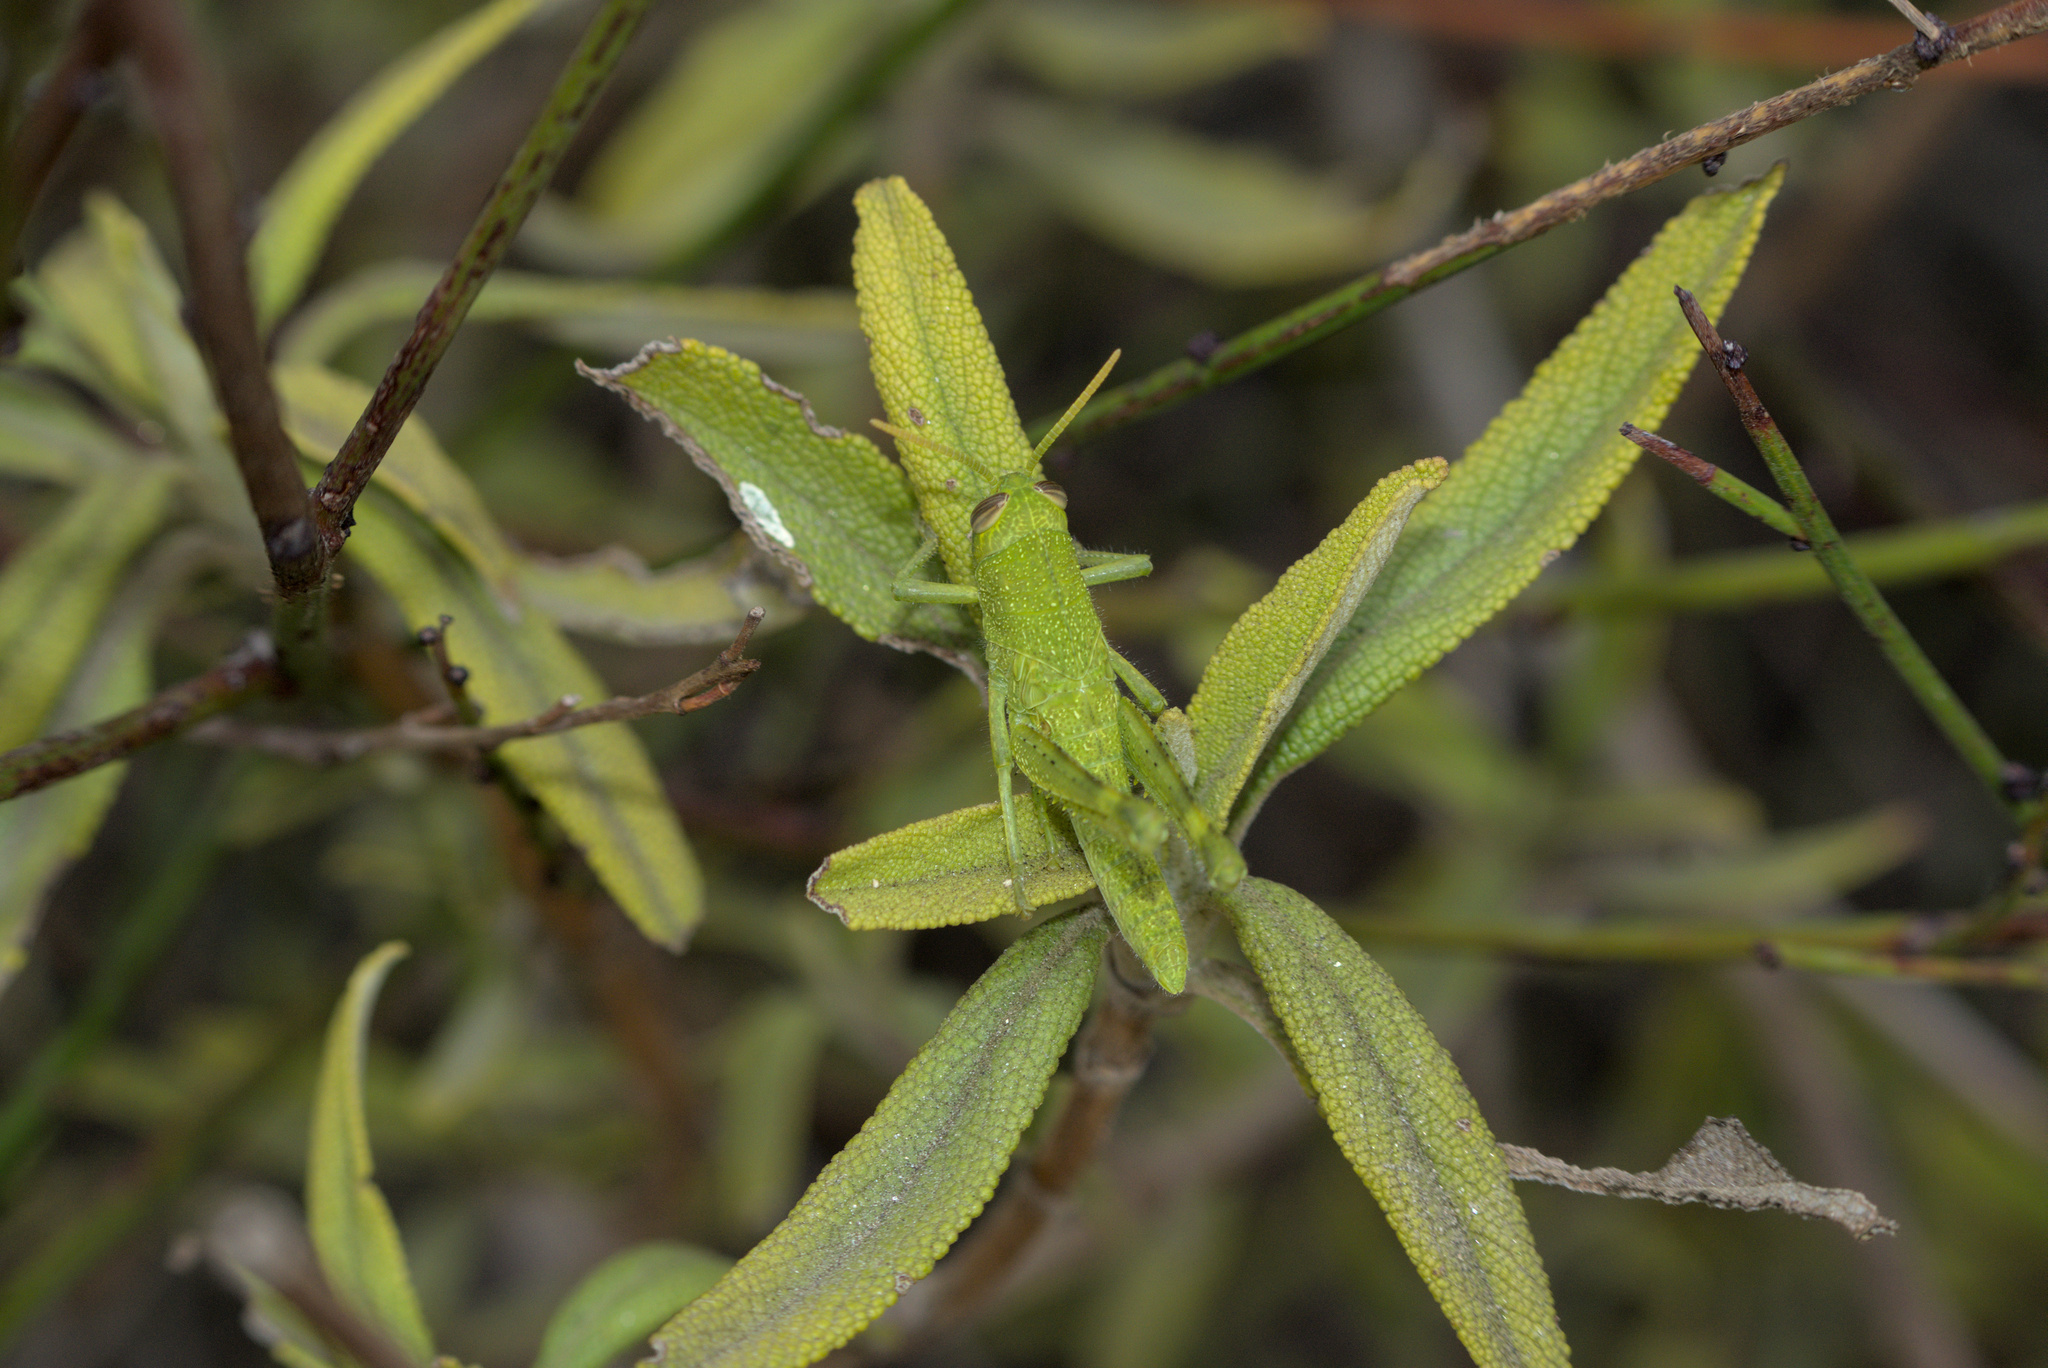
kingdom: Animalia
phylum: Arthropoda
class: Insecta
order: Orthoptera
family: Acrididae
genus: Schistocerca
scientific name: Schistocerca nitens
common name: Vagrant grasshopper
